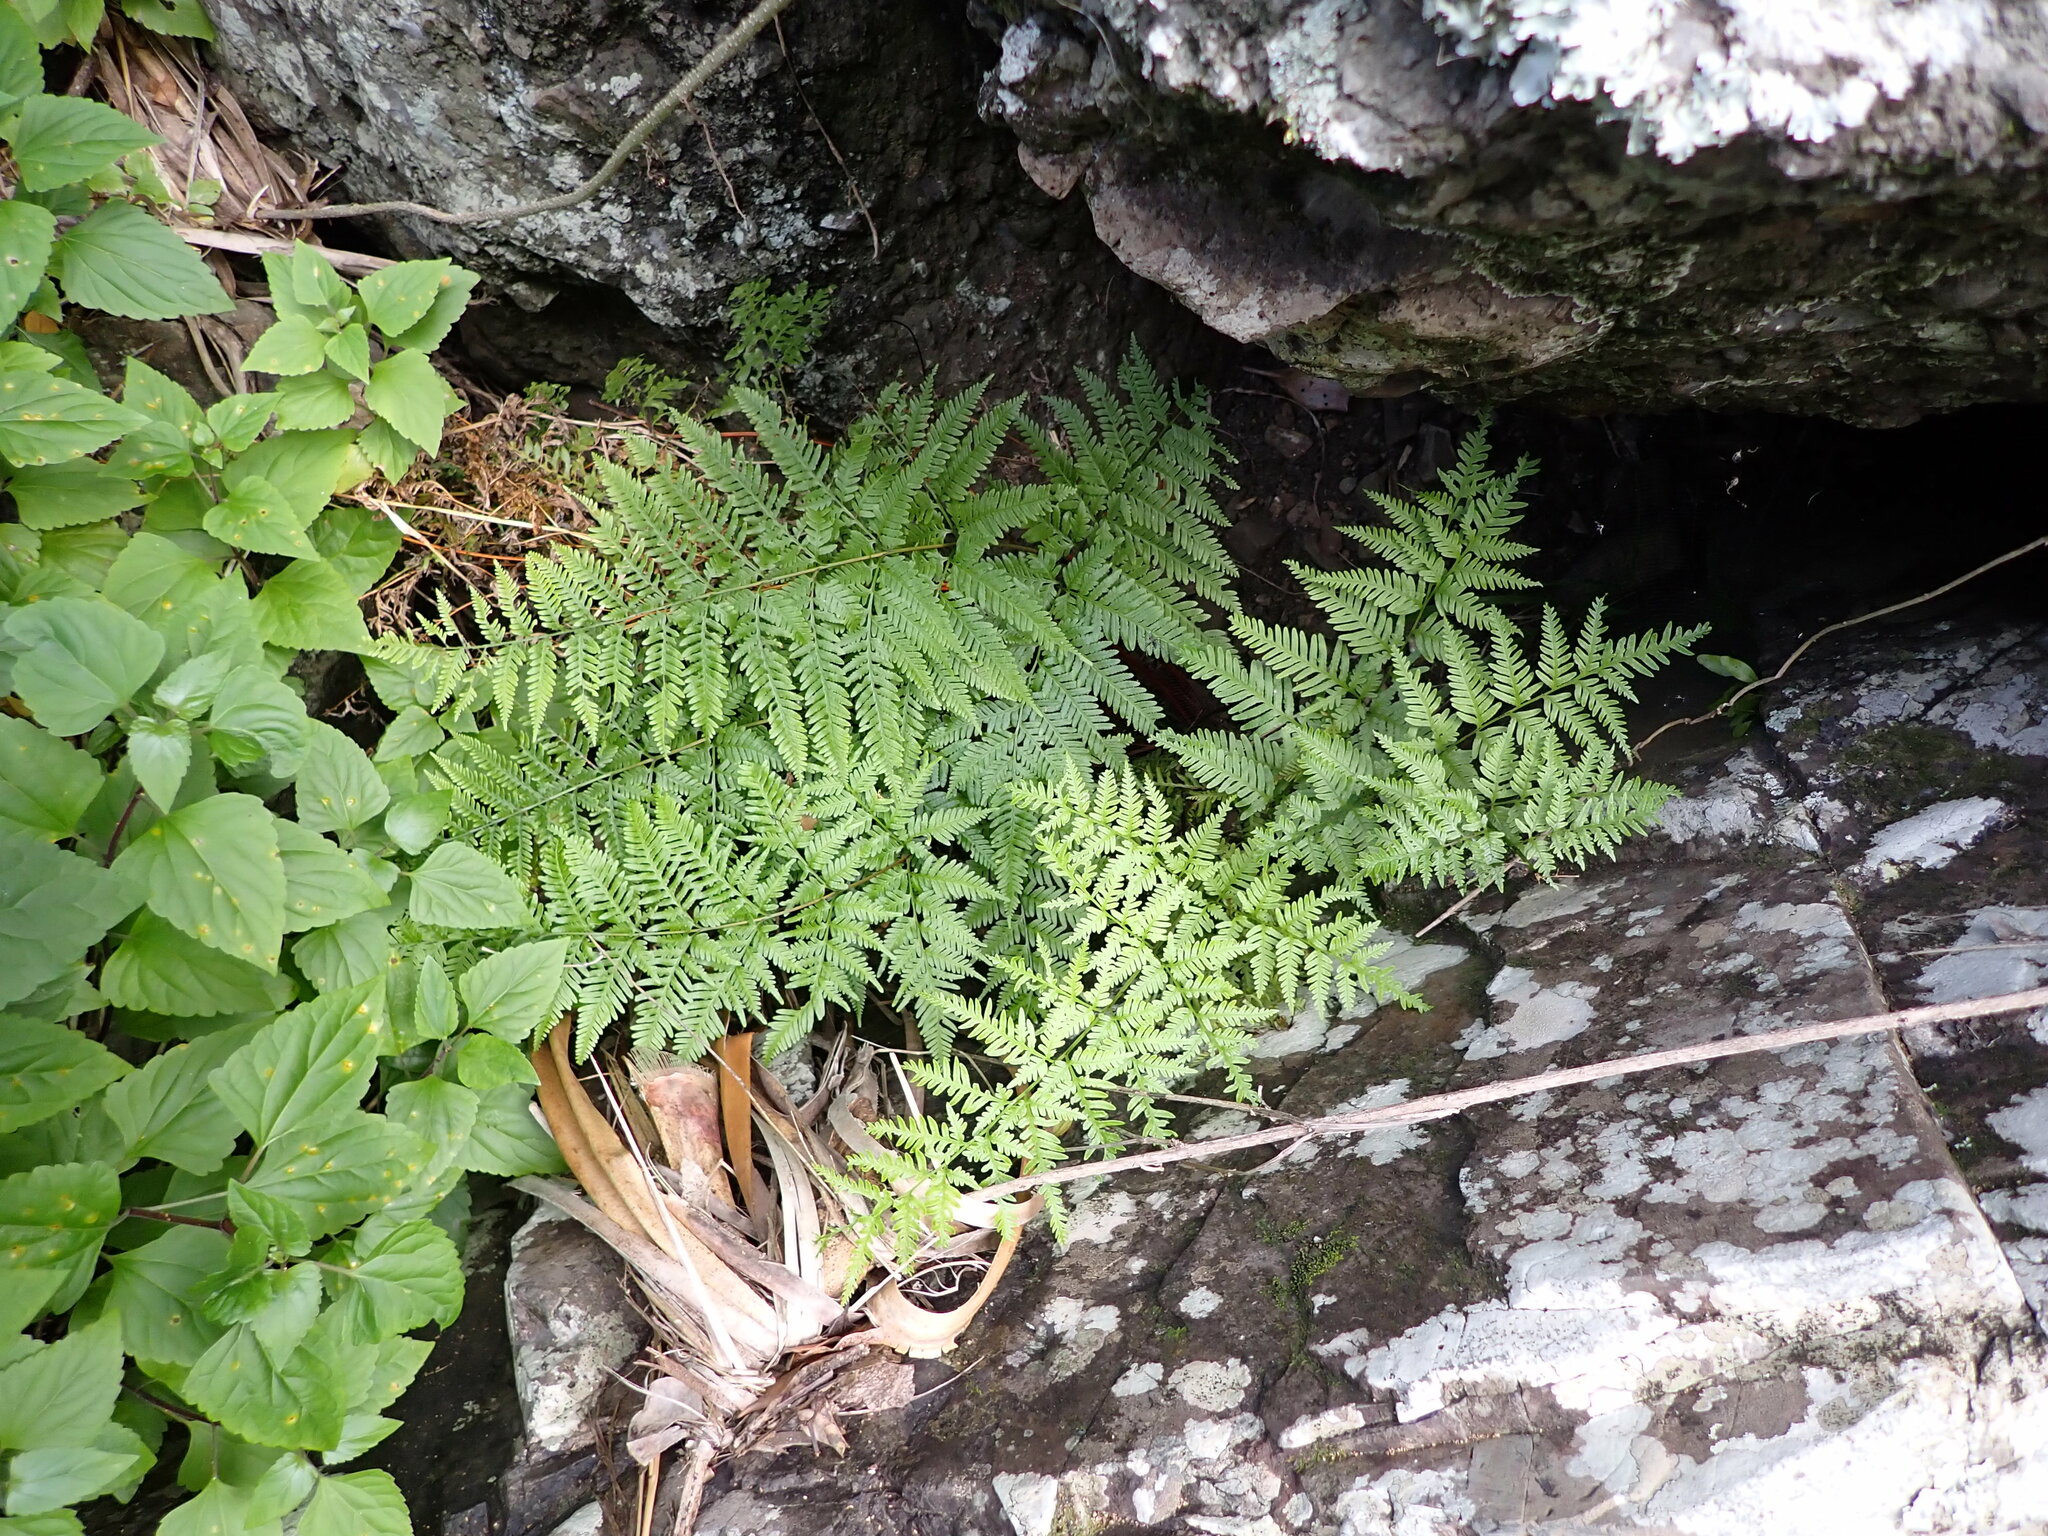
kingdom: Plantae
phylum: Tracheophyta
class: Polypodiopsida
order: Polypodiales
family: Pteridaceae
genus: Pteris
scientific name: Pteris tremula
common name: Australian brake
